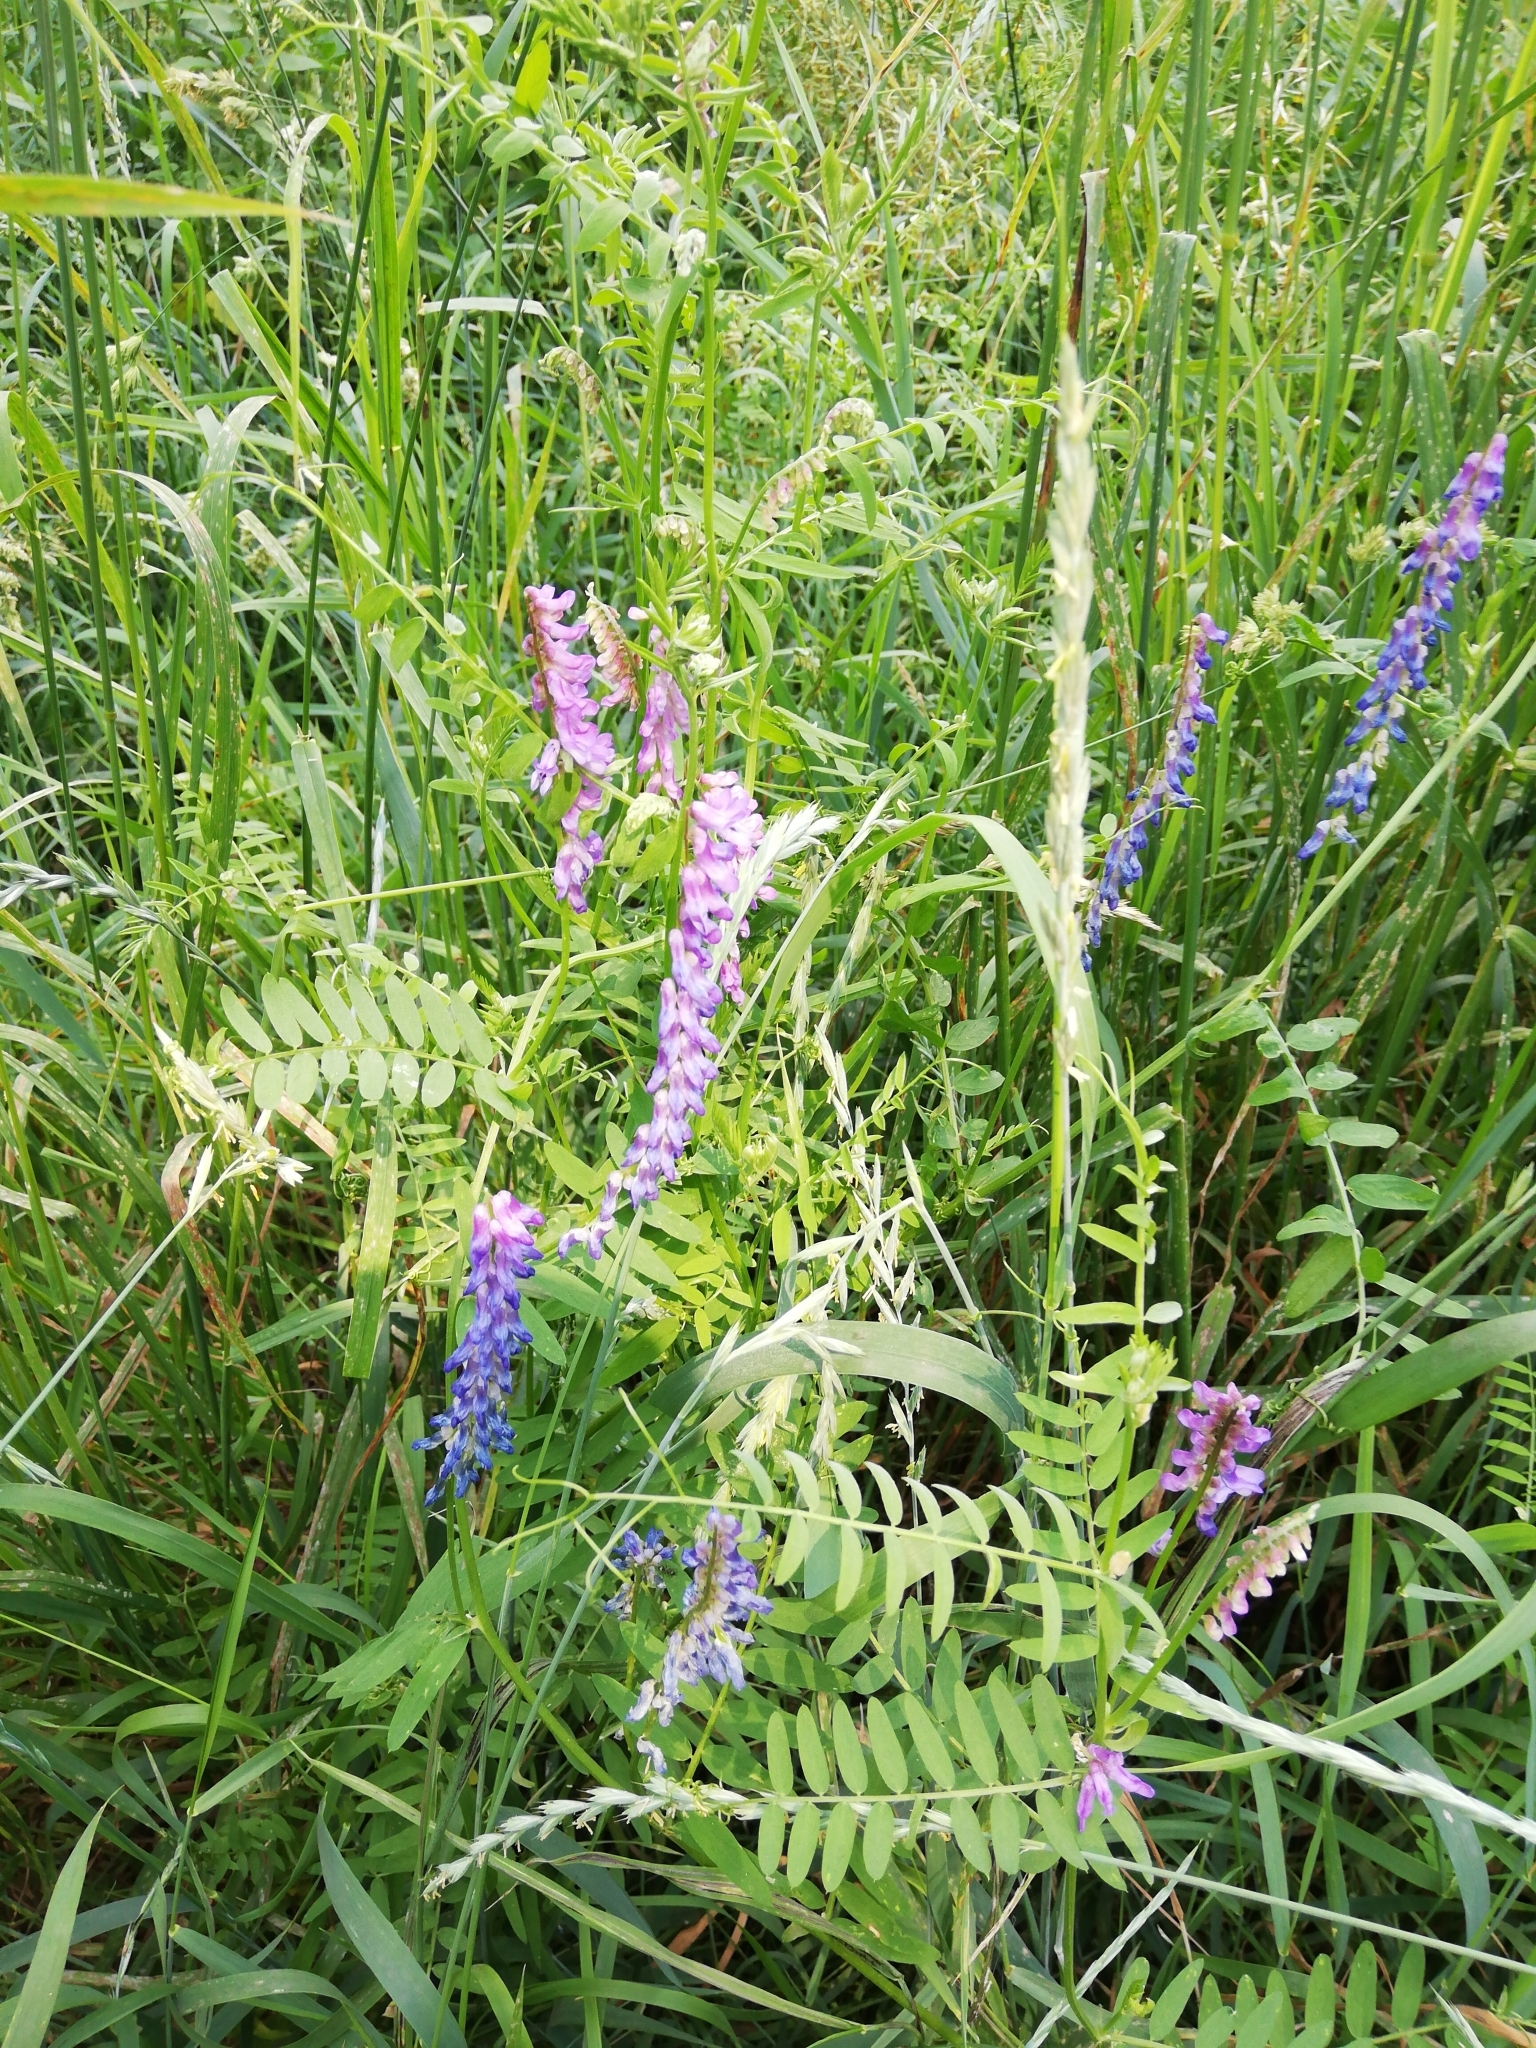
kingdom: Plantae
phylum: Tracheophyta
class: Magnoliopsida
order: Fabales
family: Fabaceae
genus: Vicia
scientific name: Vicia cracca
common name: Bird vetch
